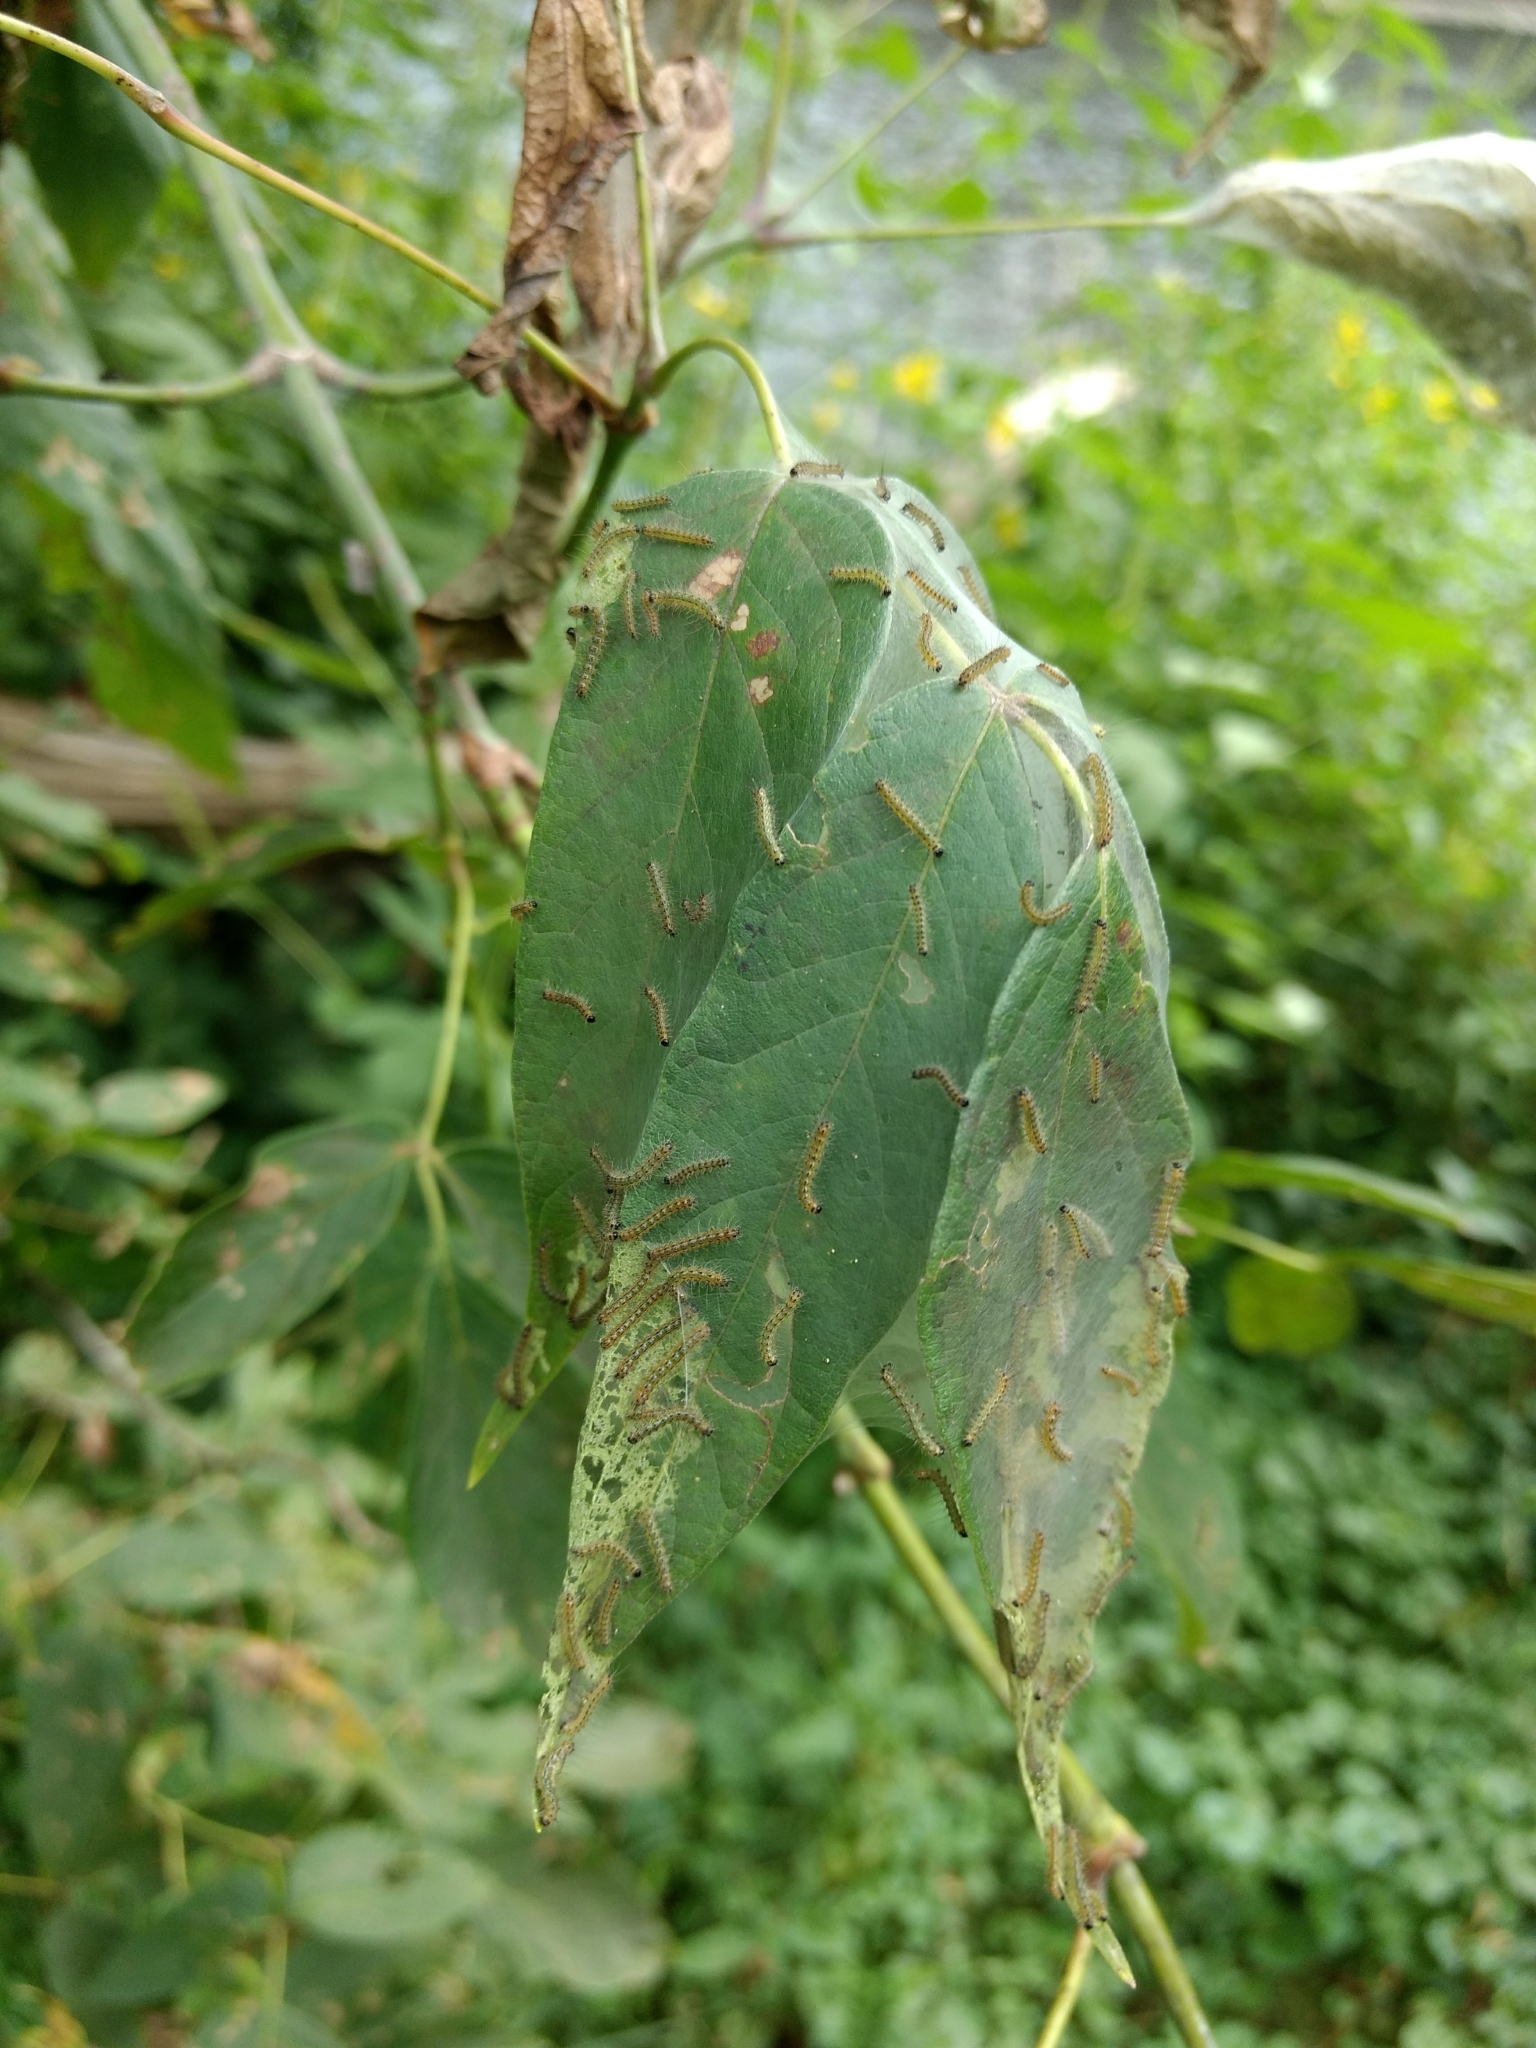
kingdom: Animalia
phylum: Arthropoda
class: Insecta
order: Lepidoptera
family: Erebidae
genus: Hyphantria
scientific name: Hyphantria cunea
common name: American white moth
